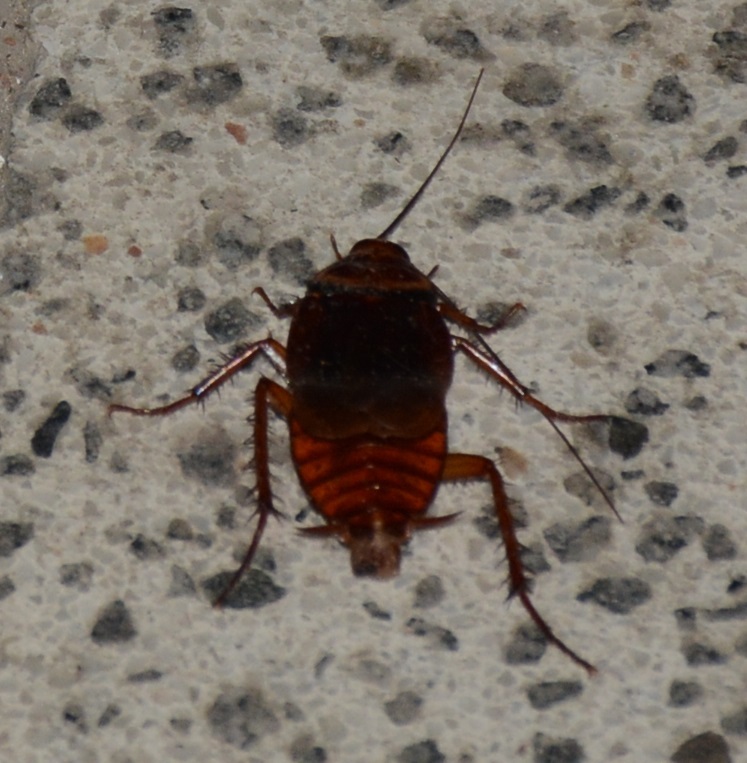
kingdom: Animalia
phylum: Arthropoda
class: Insecta
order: Blattodea
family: Blattidae
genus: Periplaneta
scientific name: Periplaneta americana
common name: American cockroach
